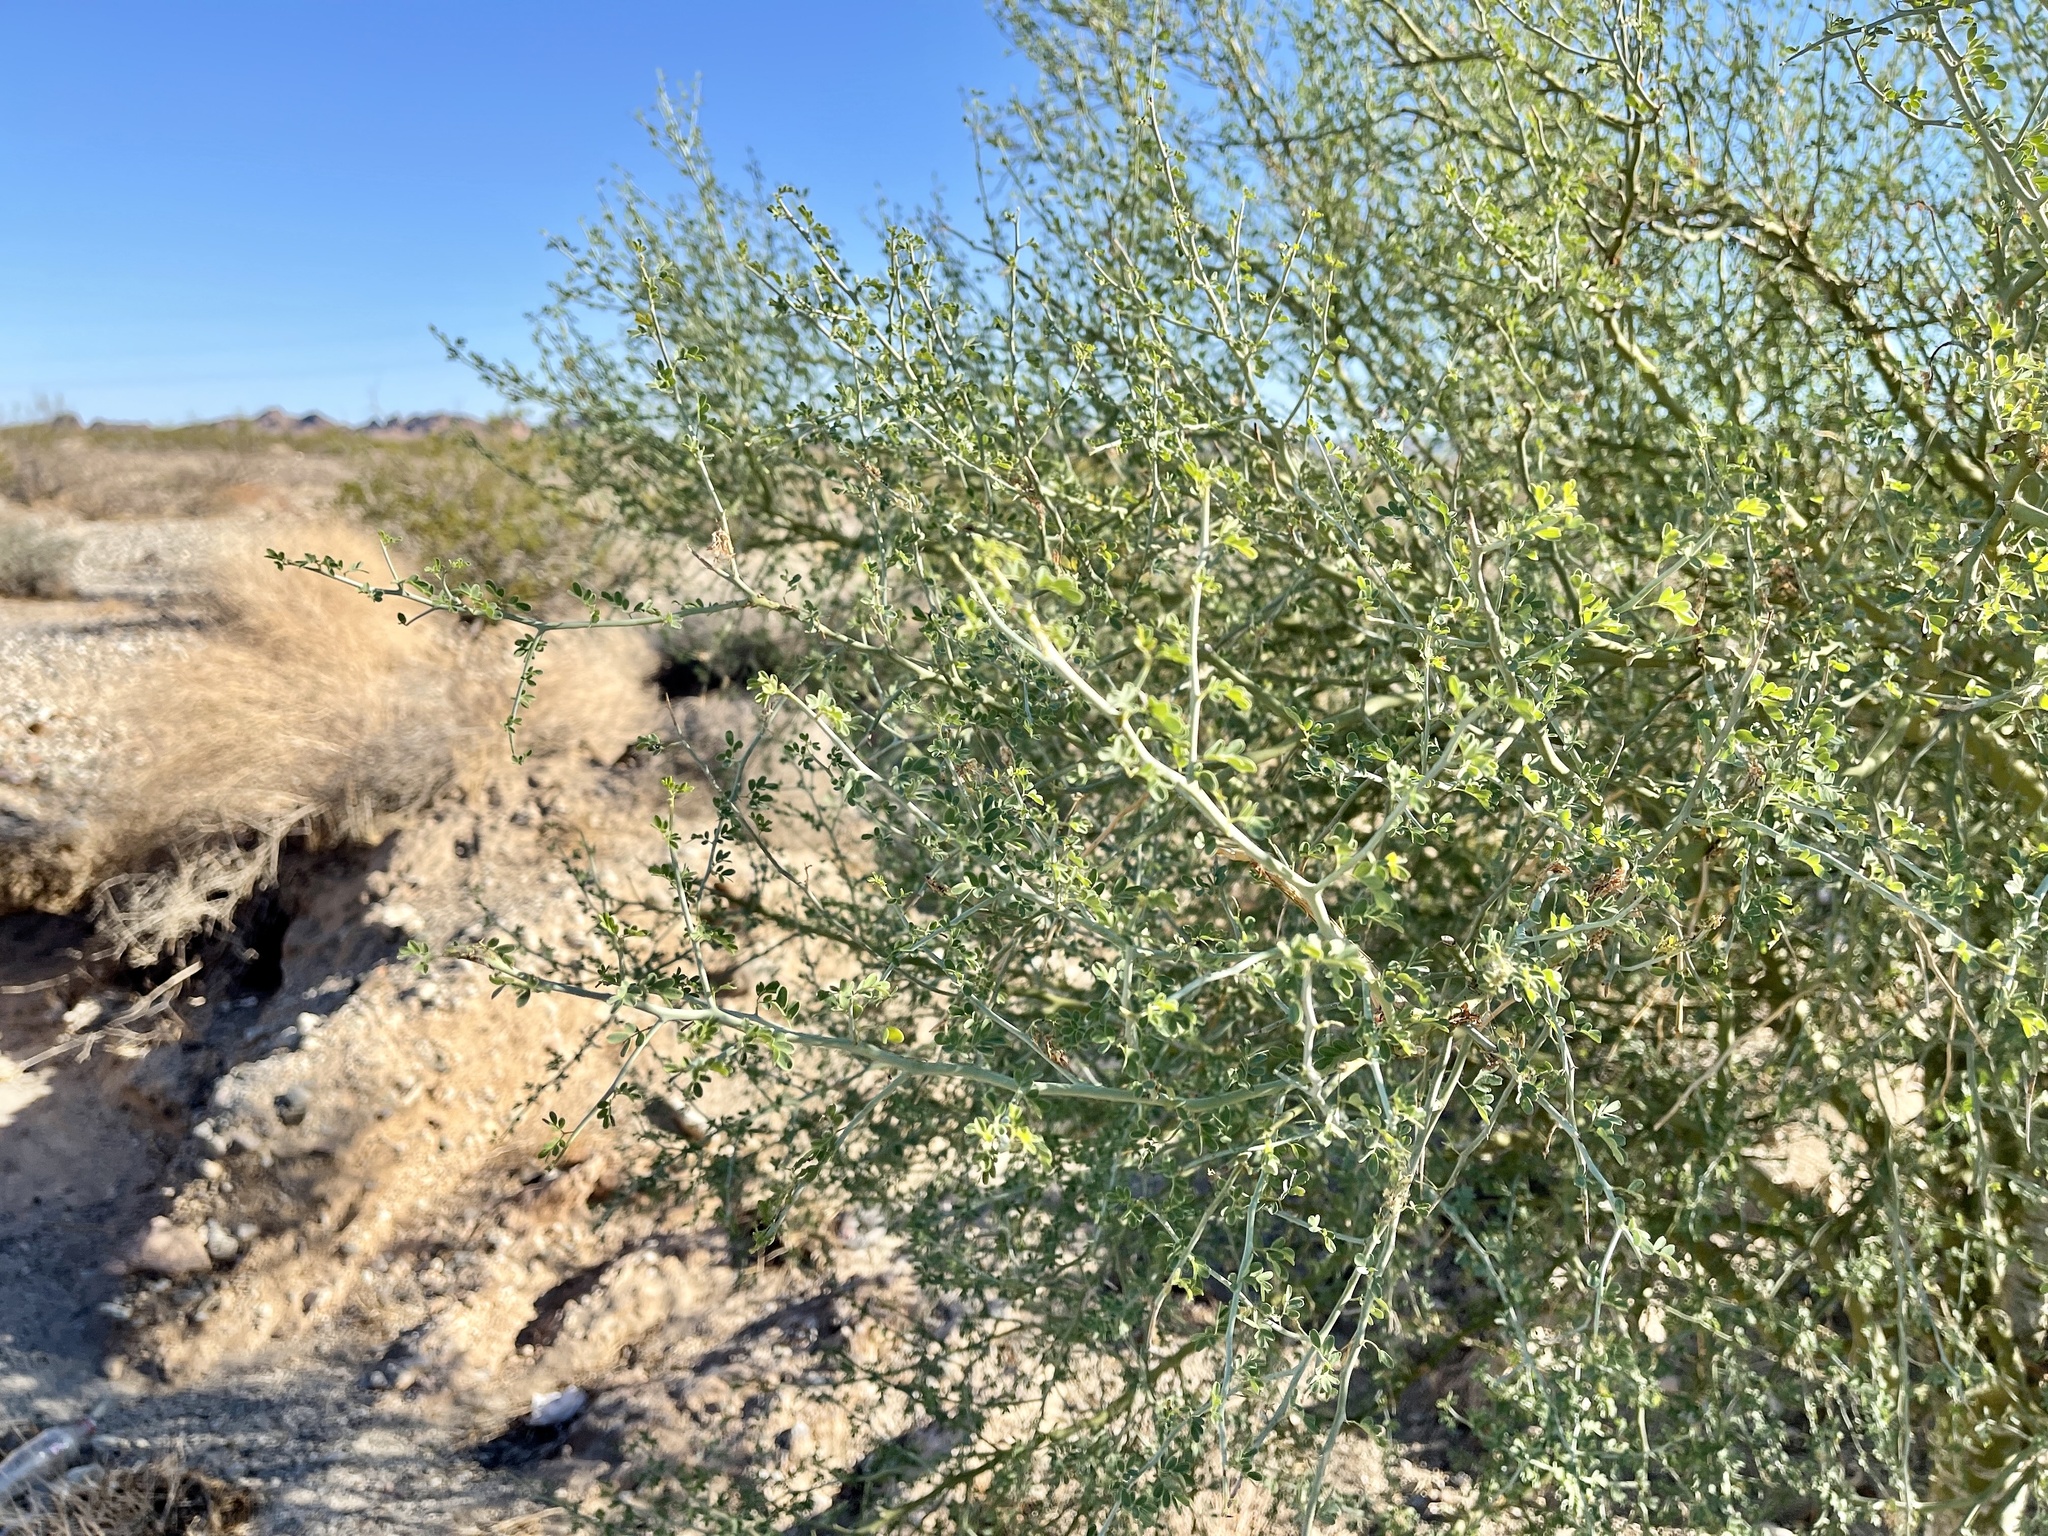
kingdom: Plantae
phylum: Tracheophyta
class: Magnoliopsida
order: Fabales
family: Fabaceae
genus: Parkinsonia
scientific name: Parkinsonia florida
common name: Blue paloverde
